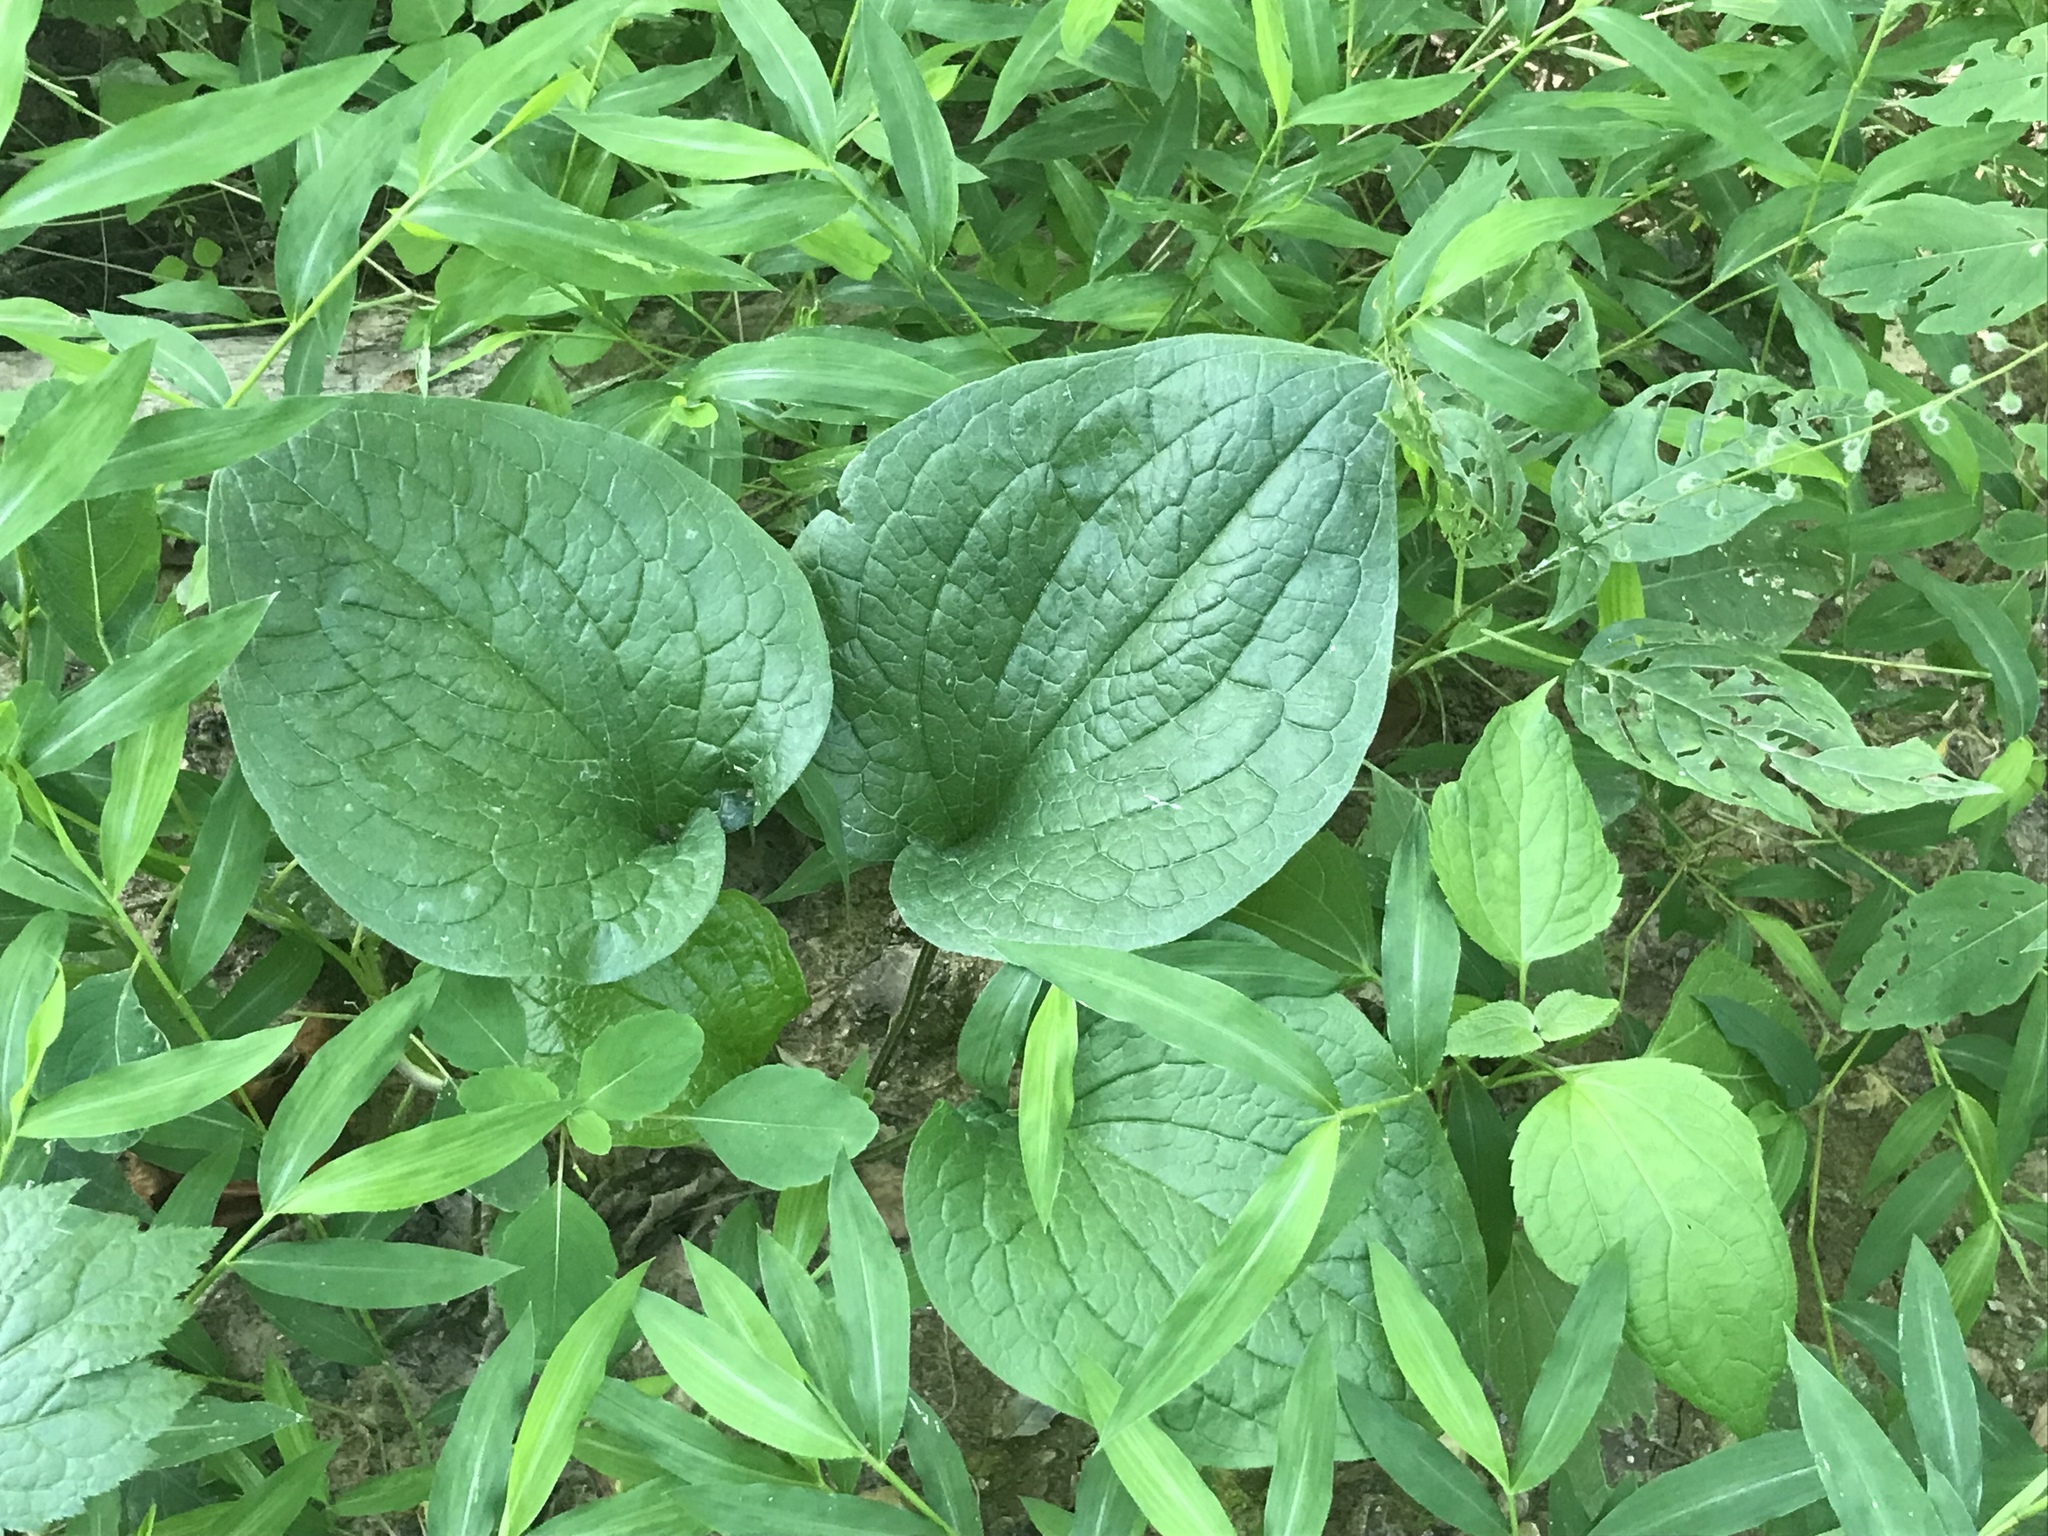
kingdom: Plantae
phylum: Tracheophyta
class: Magnoliopsida
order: Boraginales
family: Boraginaceae
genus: Hackelia
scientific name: Hackelia virginiana
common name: Beggar's-lice
